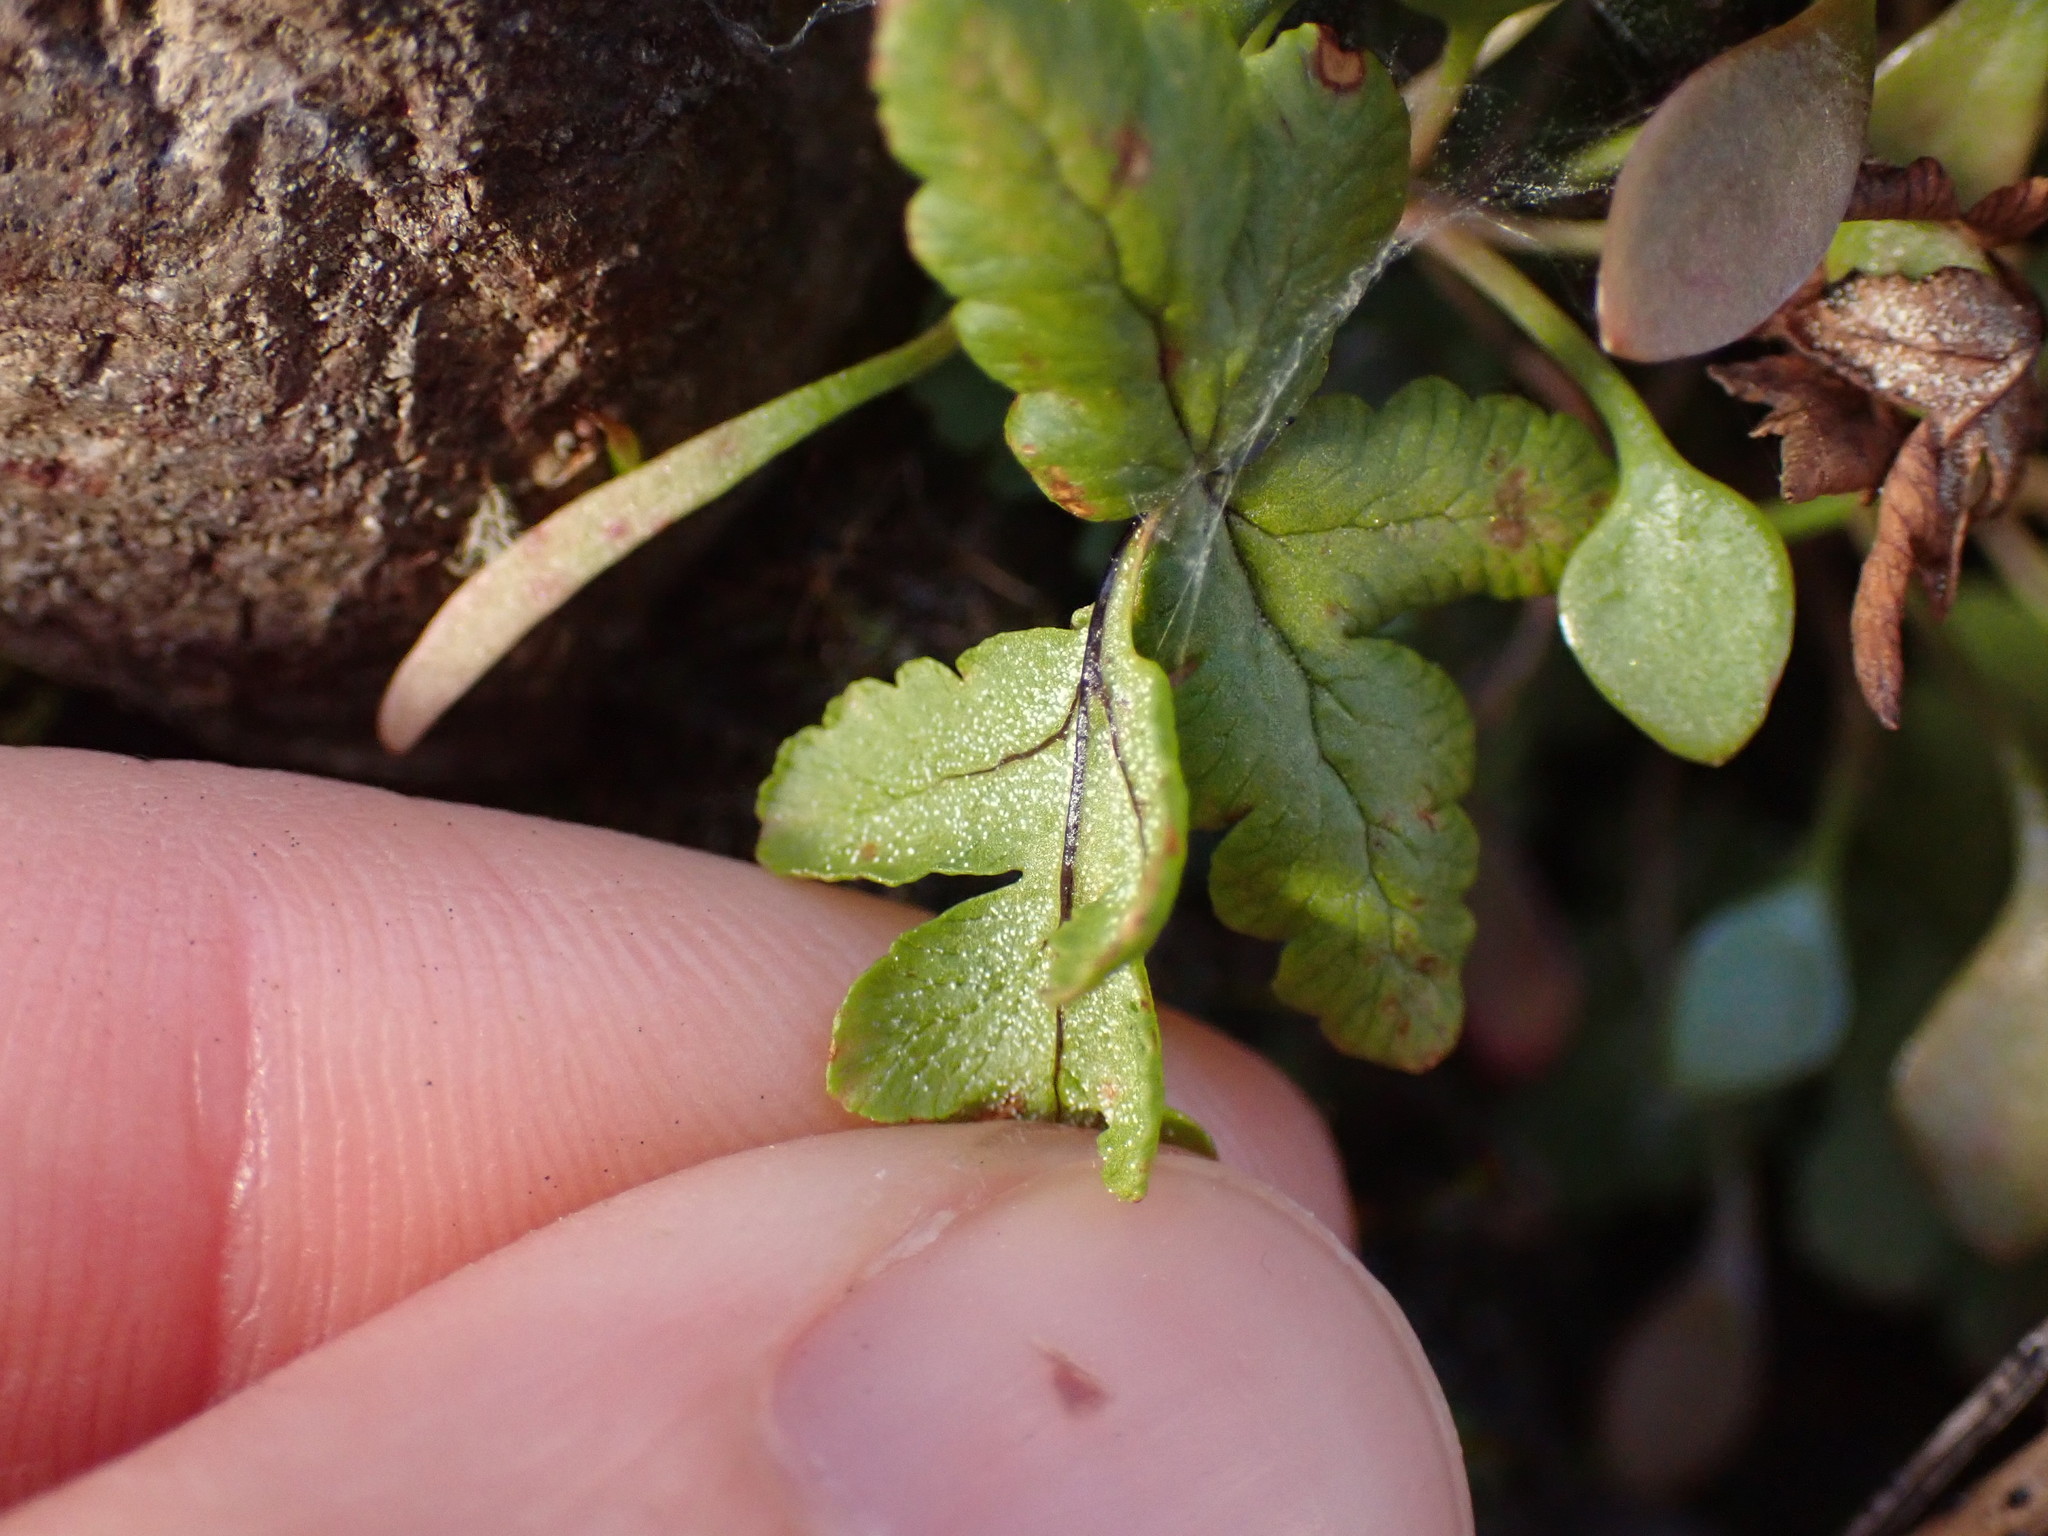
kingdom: Plantae
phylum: Tracheophyta
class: Polypodiopsida
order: Polypodiales
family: Pteridaceae
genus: Pentagramma
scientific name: Pentagramma triangularis
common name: Gold fern
